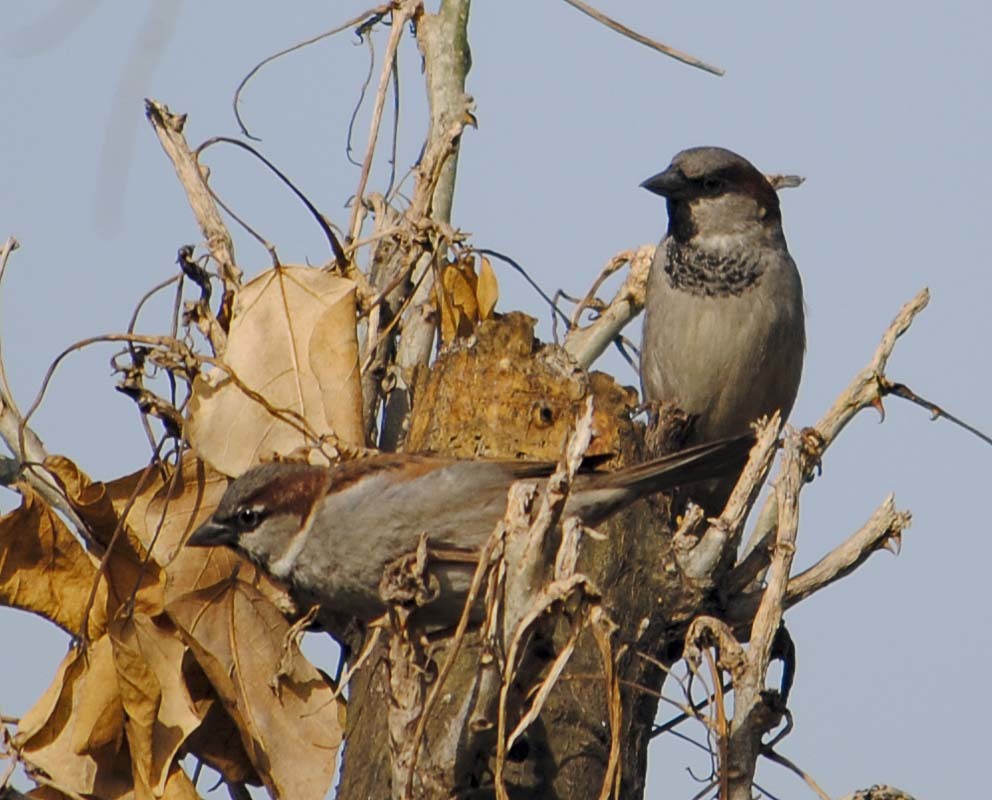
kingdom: Animalia
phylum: Chordata
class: Aves
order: Passeriformes
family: Passeridae
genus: Passer
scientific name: Passer domesticus
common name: House sparrow
